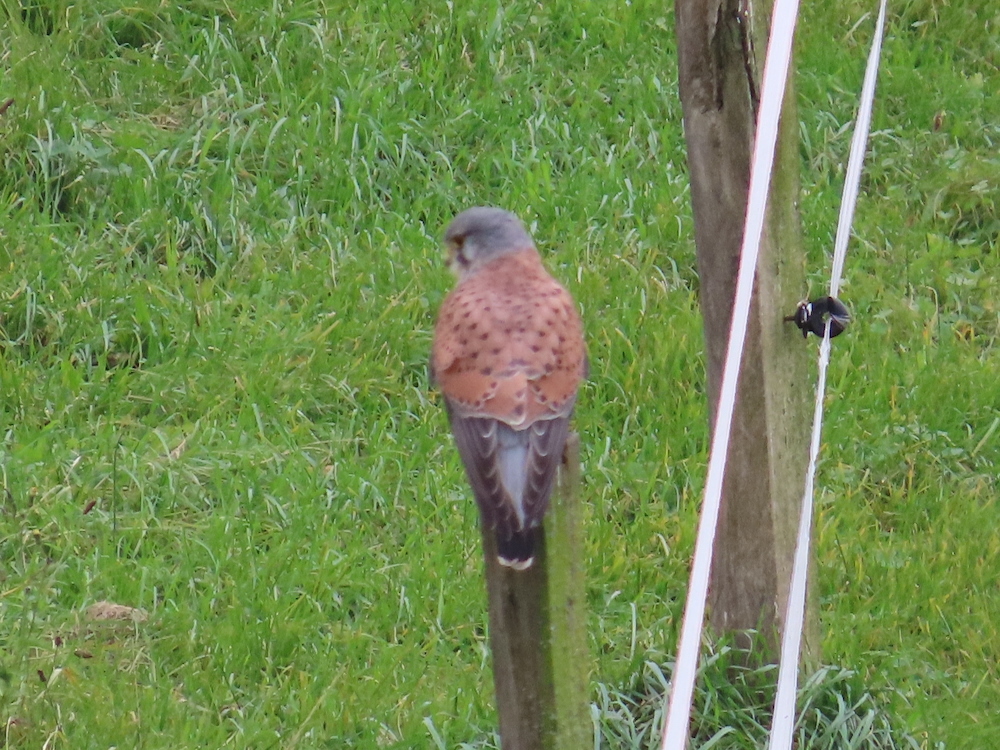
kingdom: Animalia
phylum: Chordata
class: Aves
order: Falconiformes
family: Falconidae
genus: Falco
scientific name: Falco tinnunculus
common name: Common kestrel
